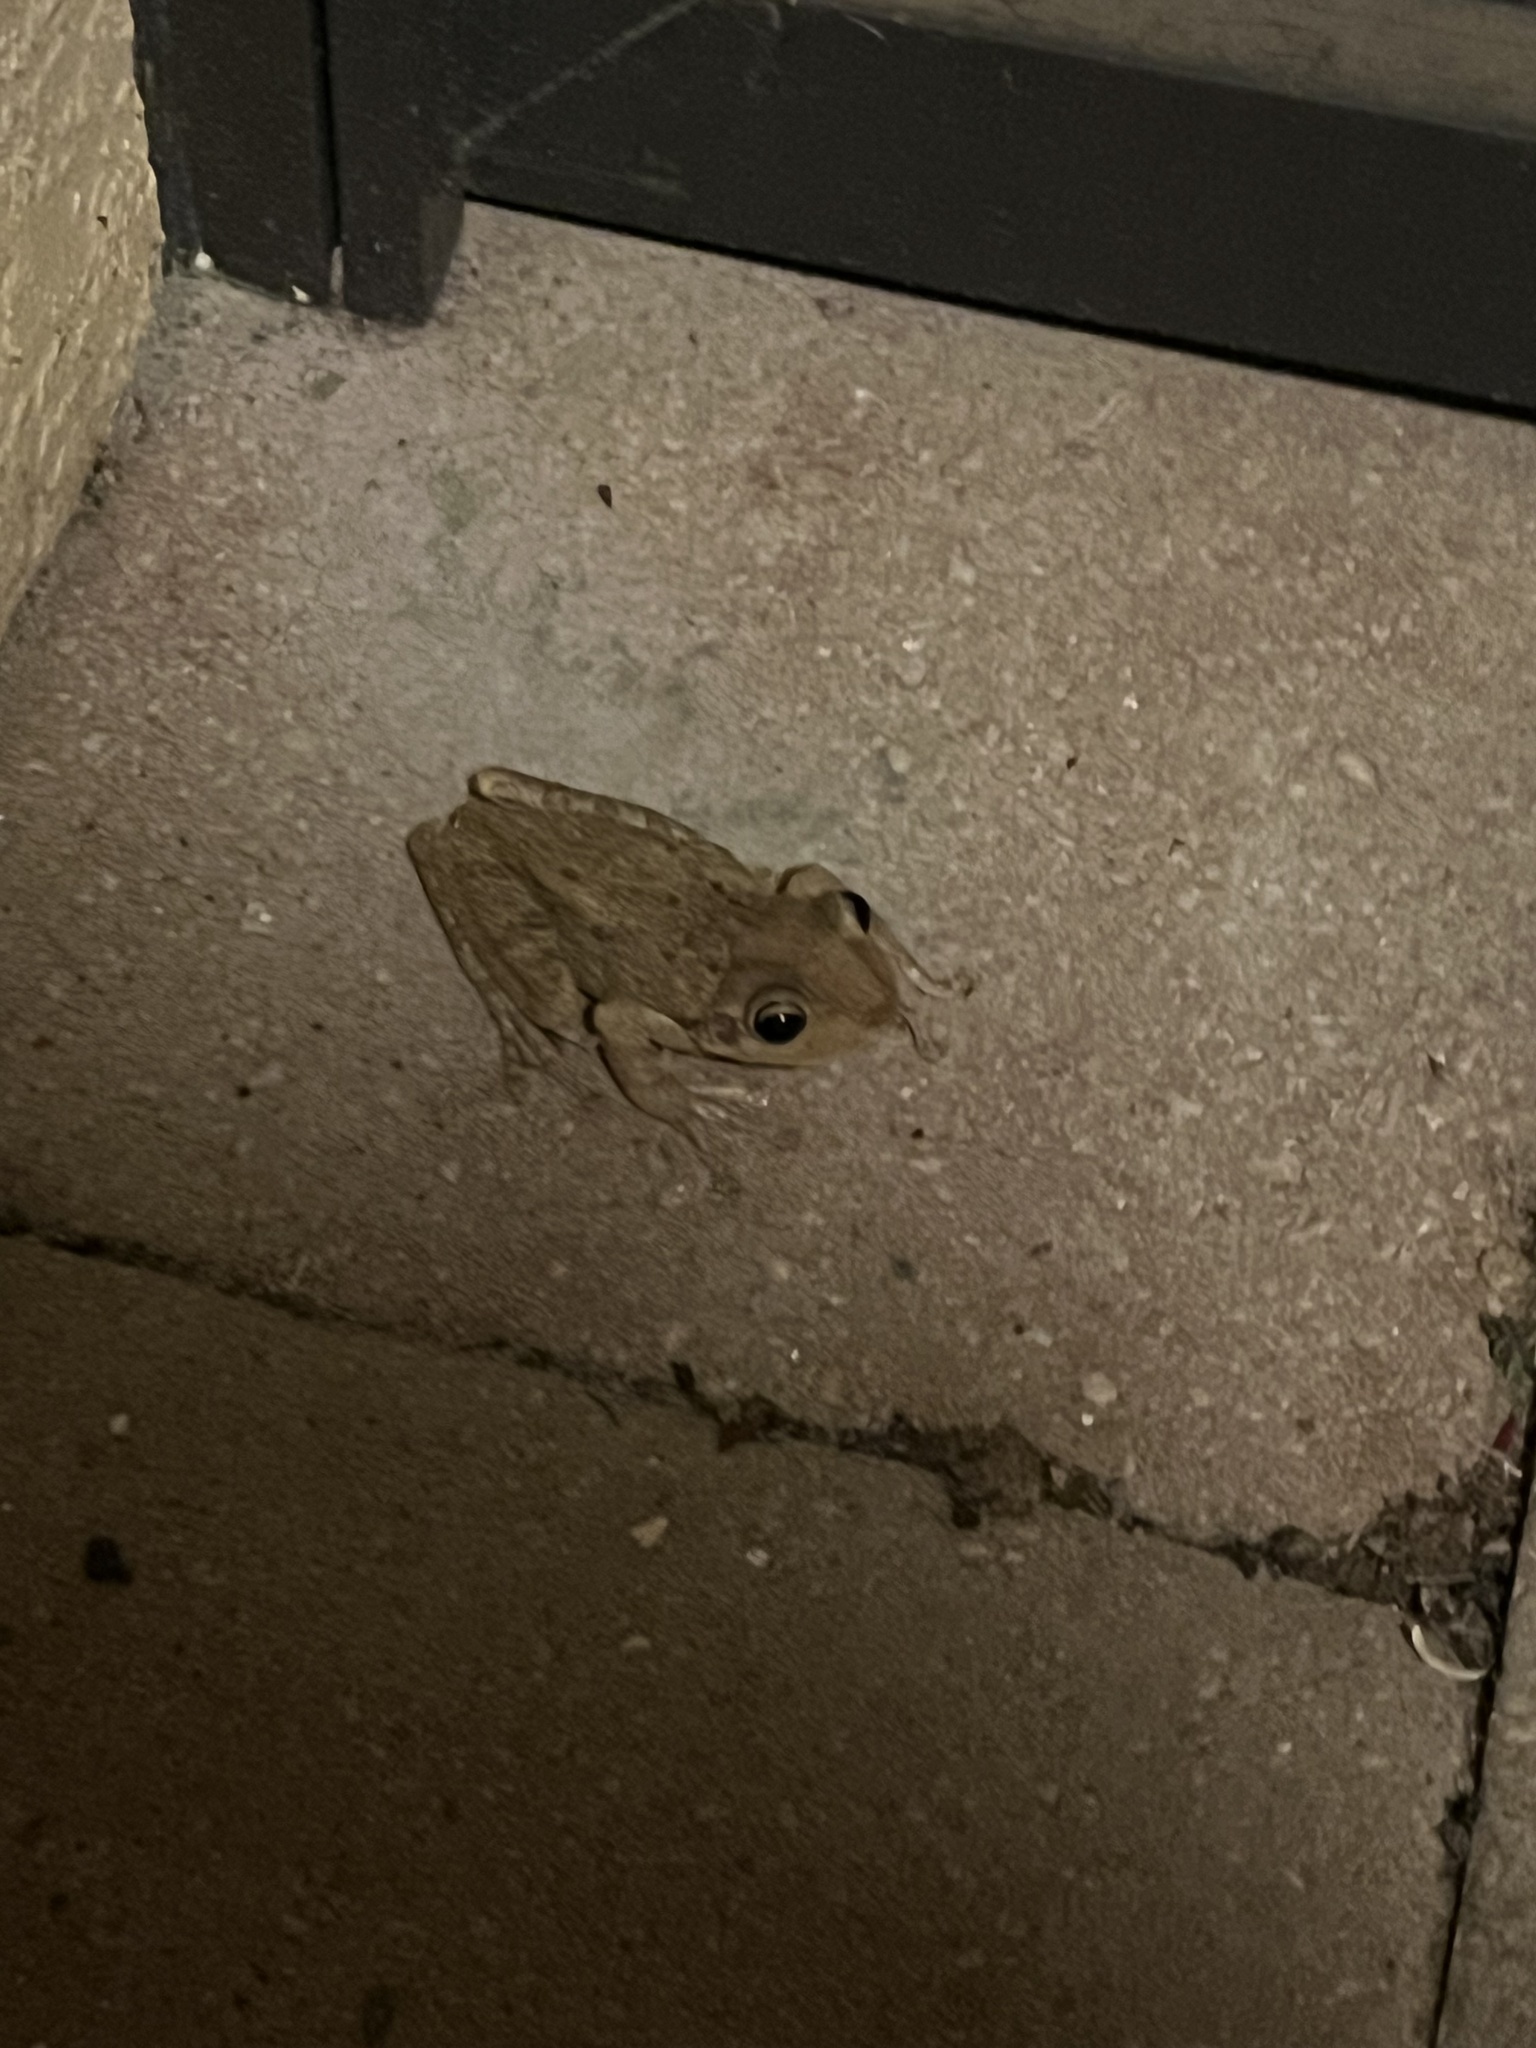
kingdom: Animalia
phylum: Chordata
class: Amphibia
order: Anura
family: Hylidae
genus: Osteopilus
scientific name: Osteopilus septentrionalis
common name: Cuban treefrog
